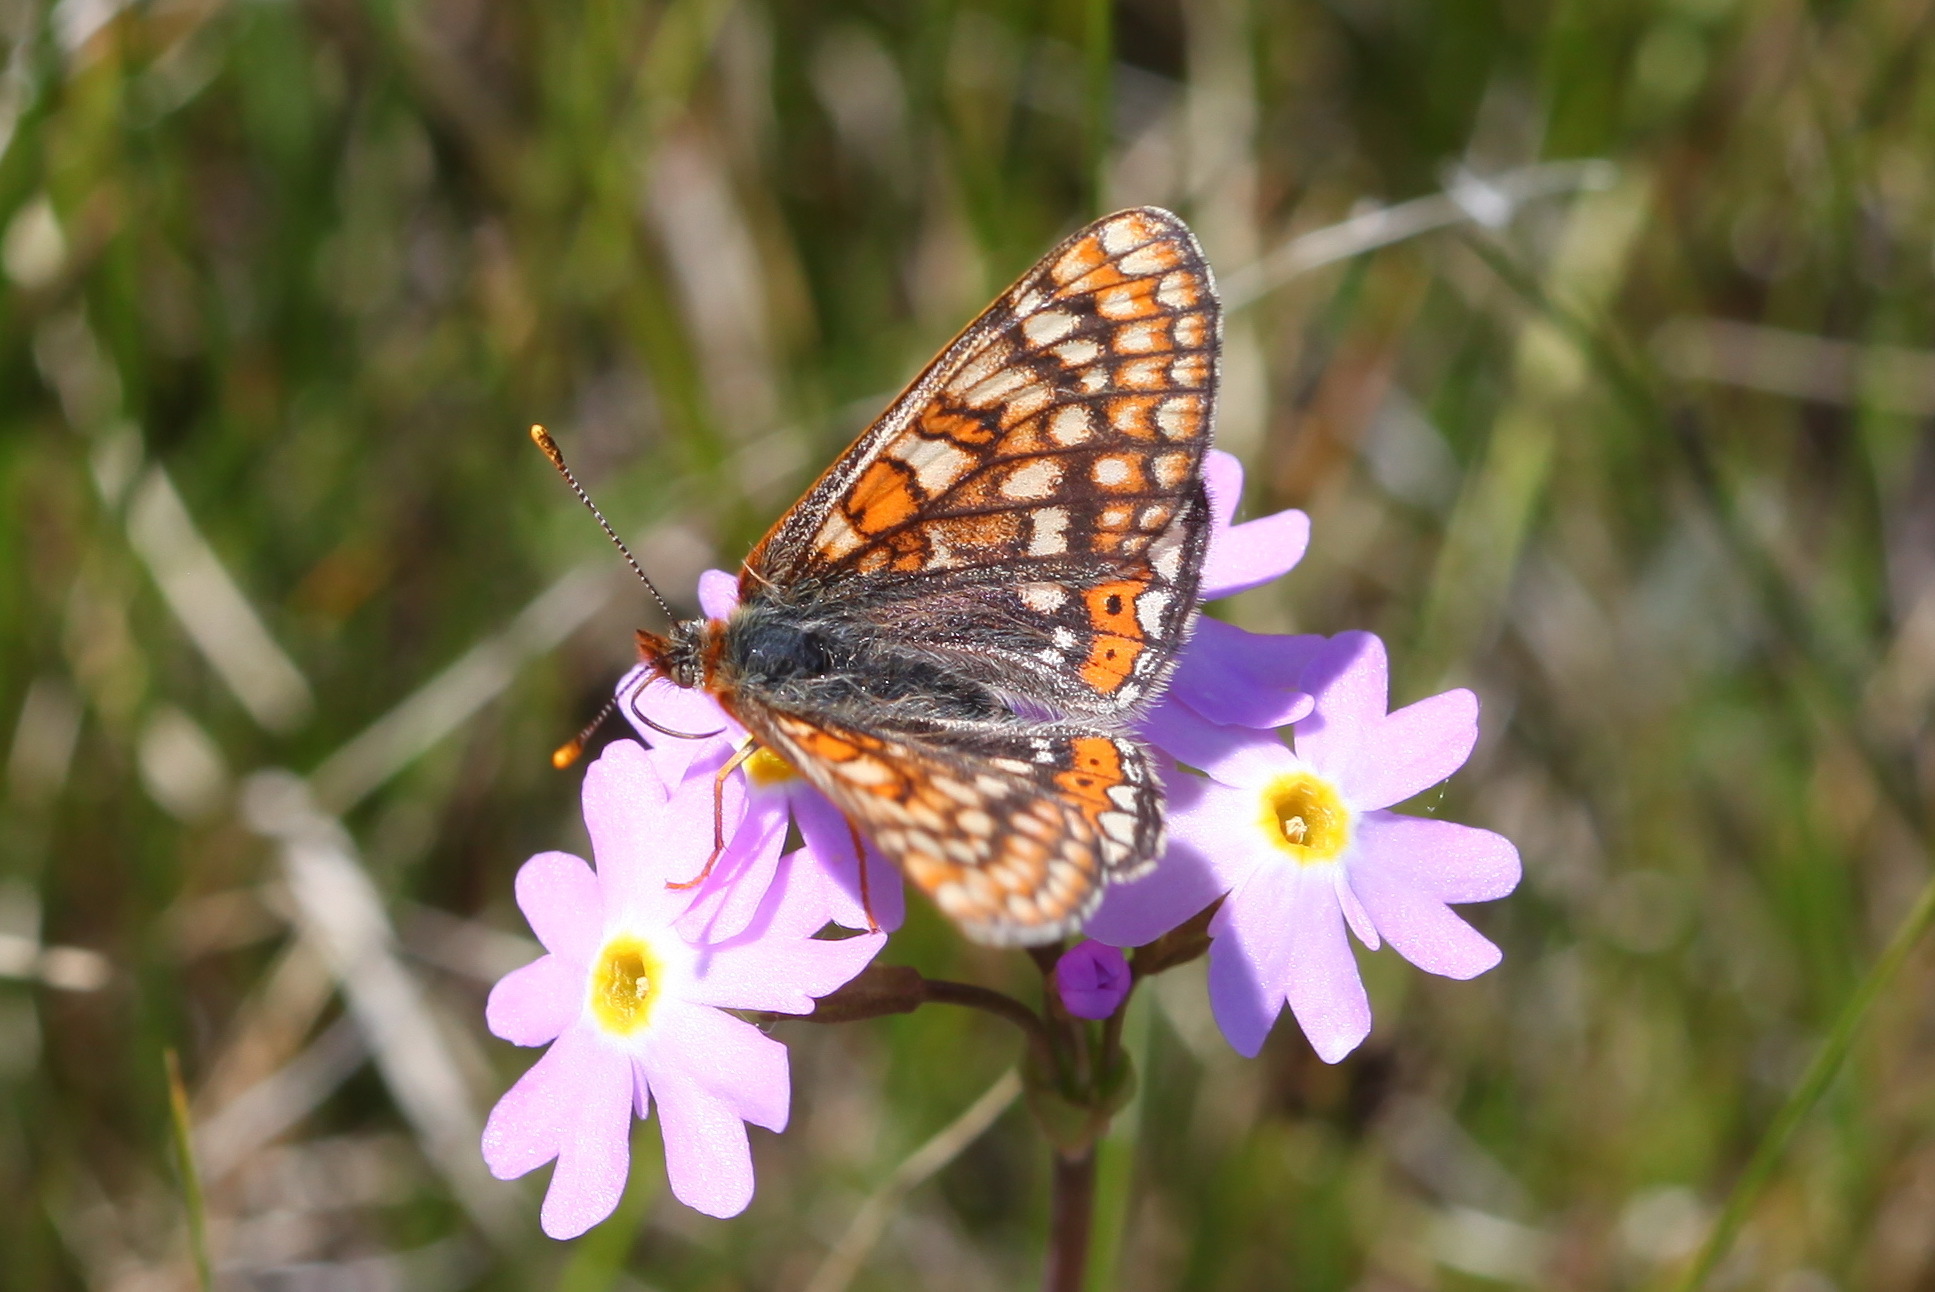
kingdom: Animalia
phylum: Arthropoda
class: Insecta
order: Lepidoptera
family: Nymphalidae
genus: Euphydryas
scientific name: Euphydryas aurinia
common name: Marsh fritillary
